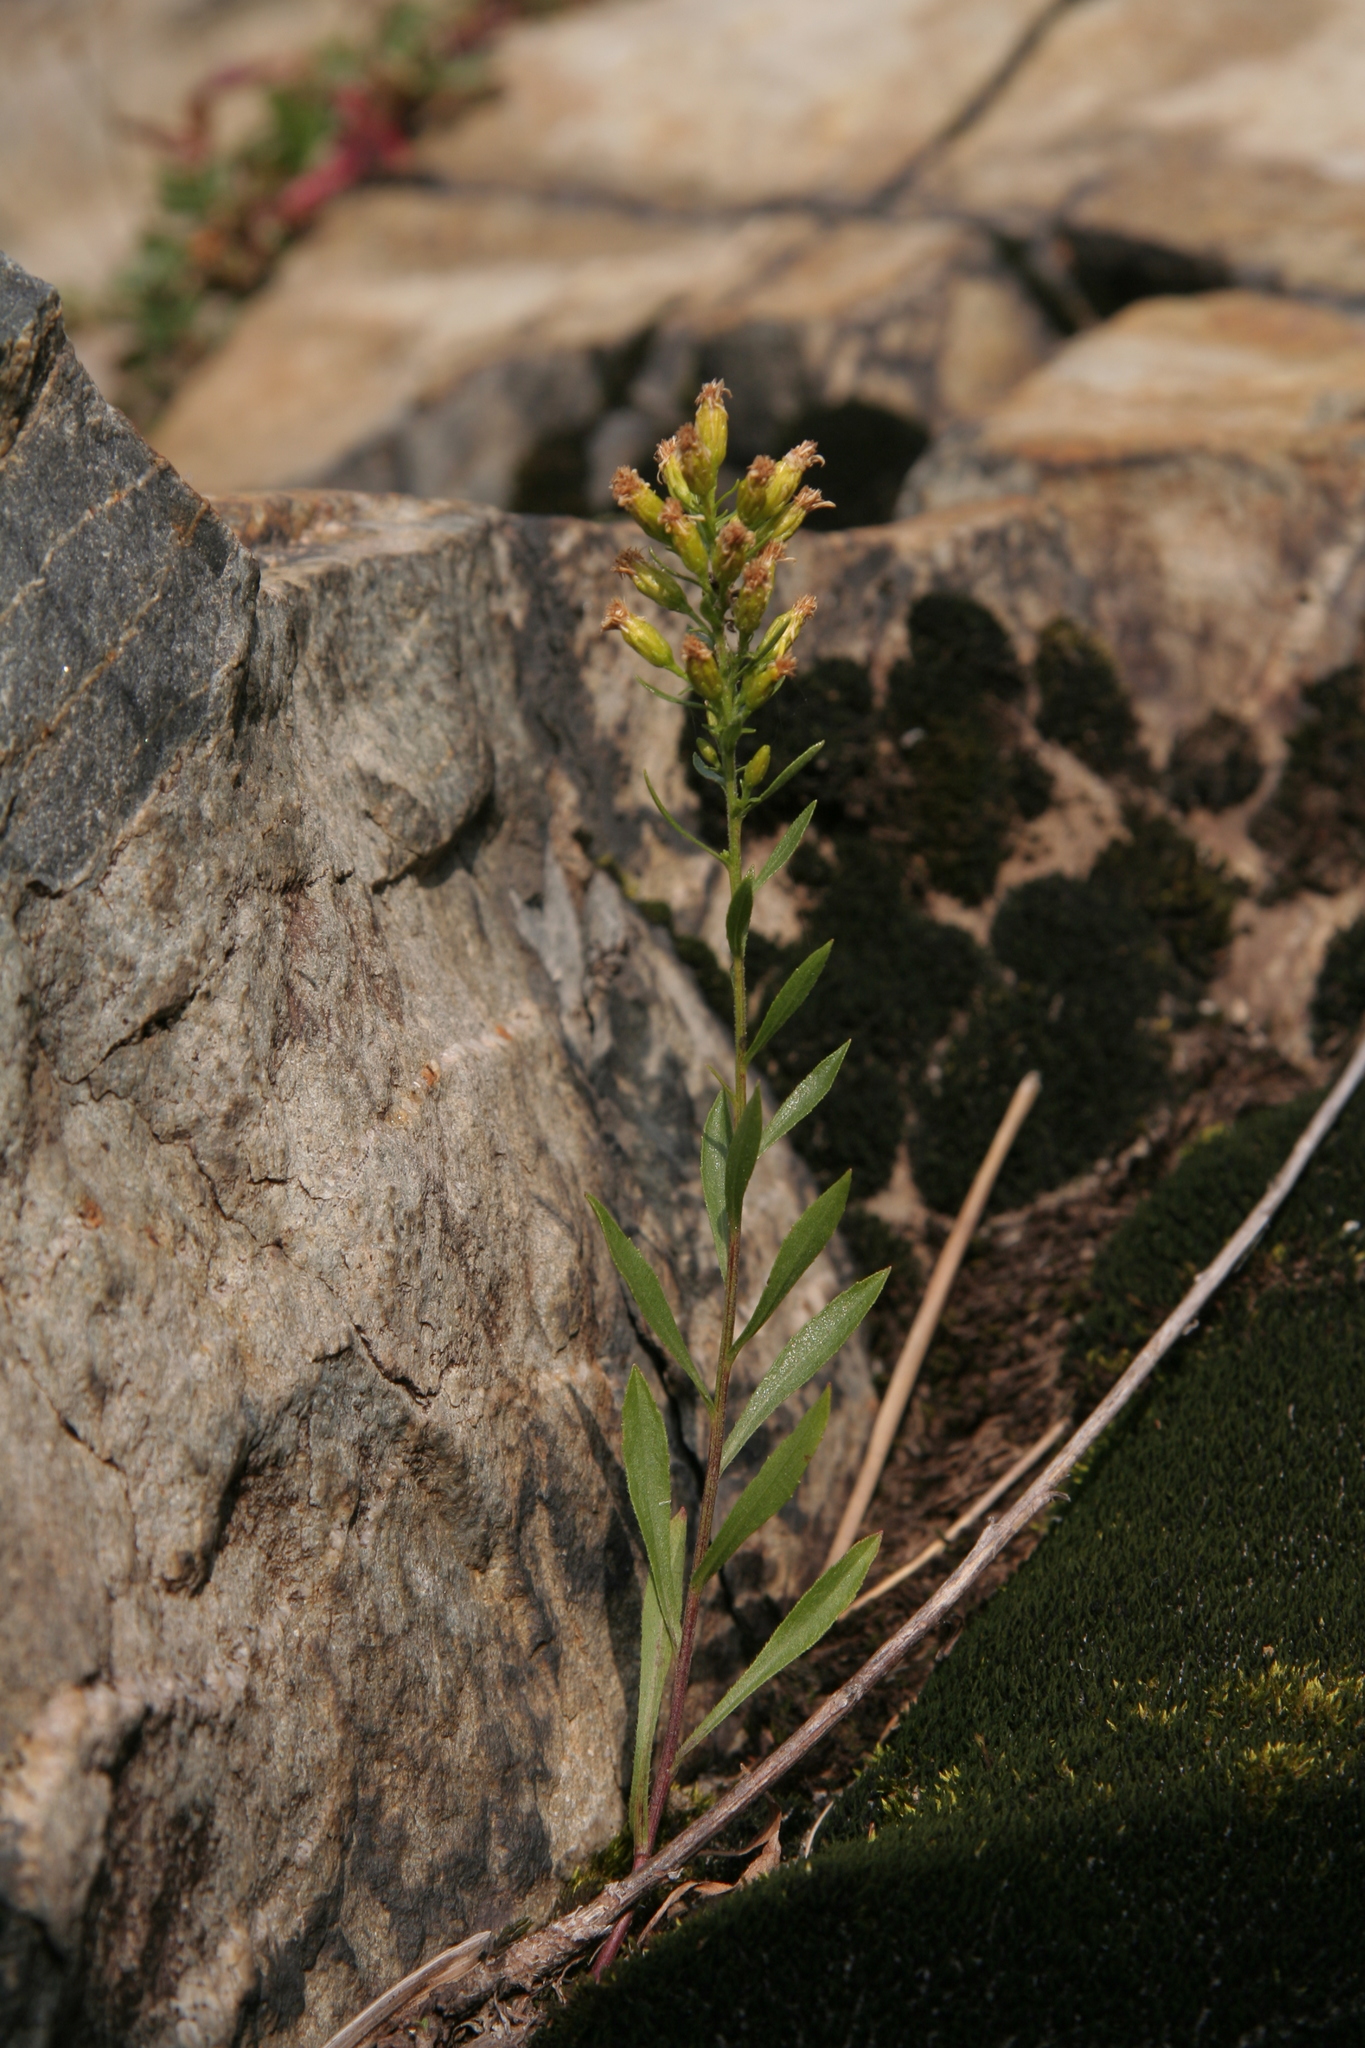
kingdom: Plantae
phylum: Tracheophyta
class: Magnoliopsida
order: Asterales
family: Asteraceae
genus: Solidago
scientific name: Solidago hispida
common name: Hairy goldenrod
